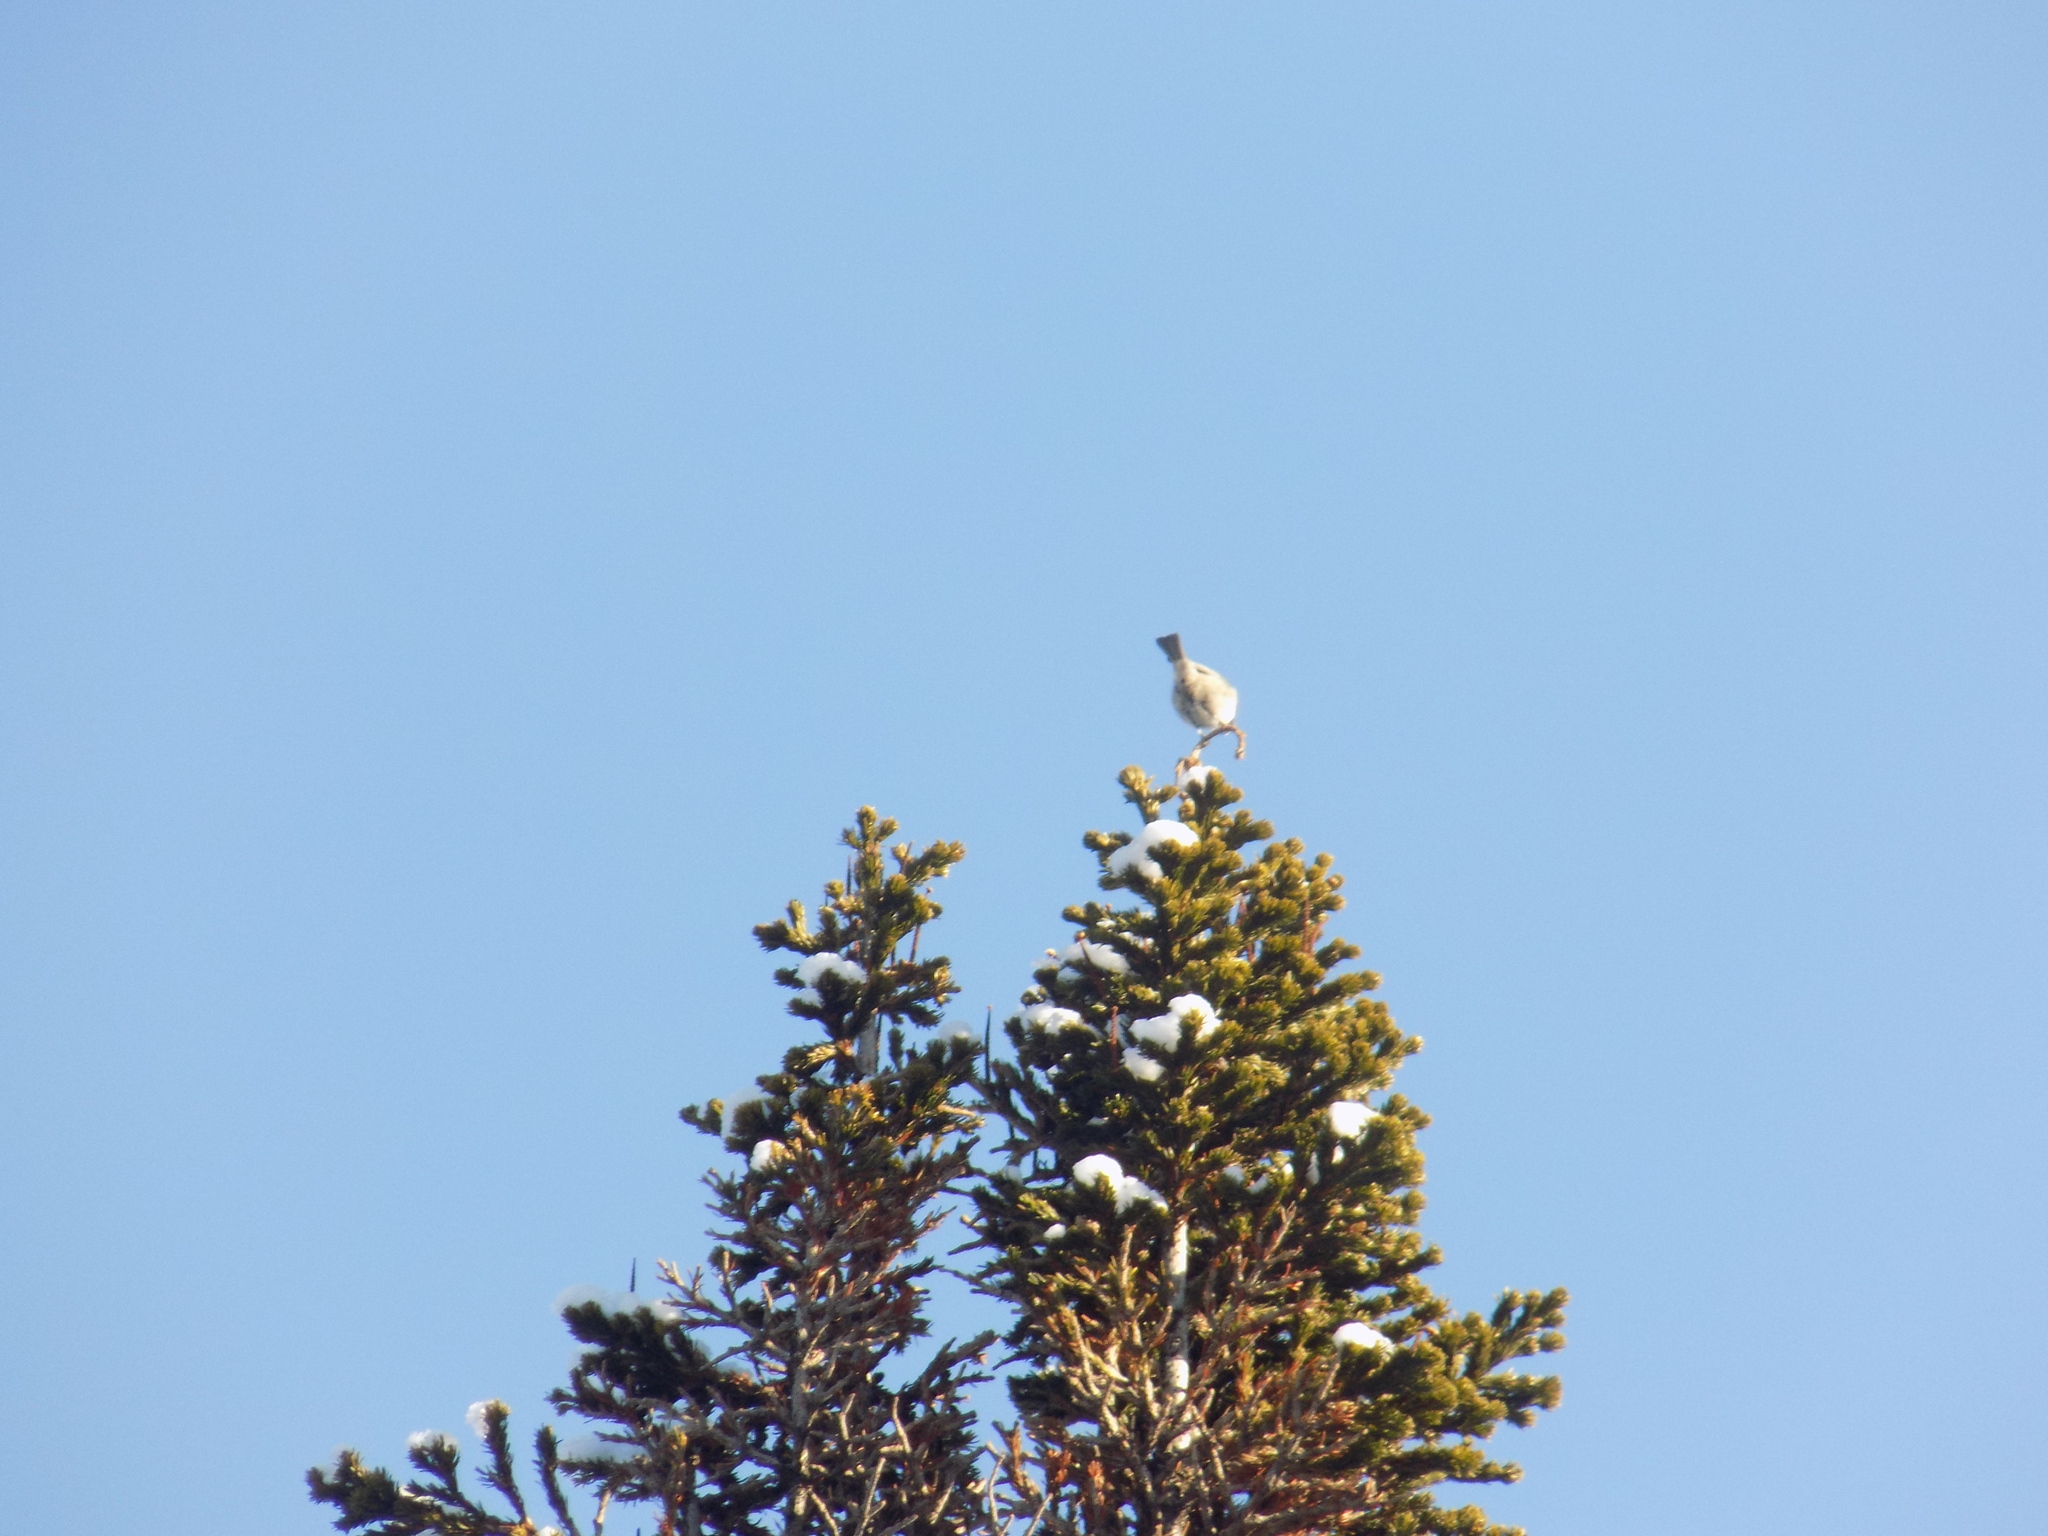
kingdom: Animalia
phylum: Chordata
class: Aves
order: Passeriformes
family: Paridae
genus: Poecile
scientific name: Poecile montanus
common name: Willow tit
